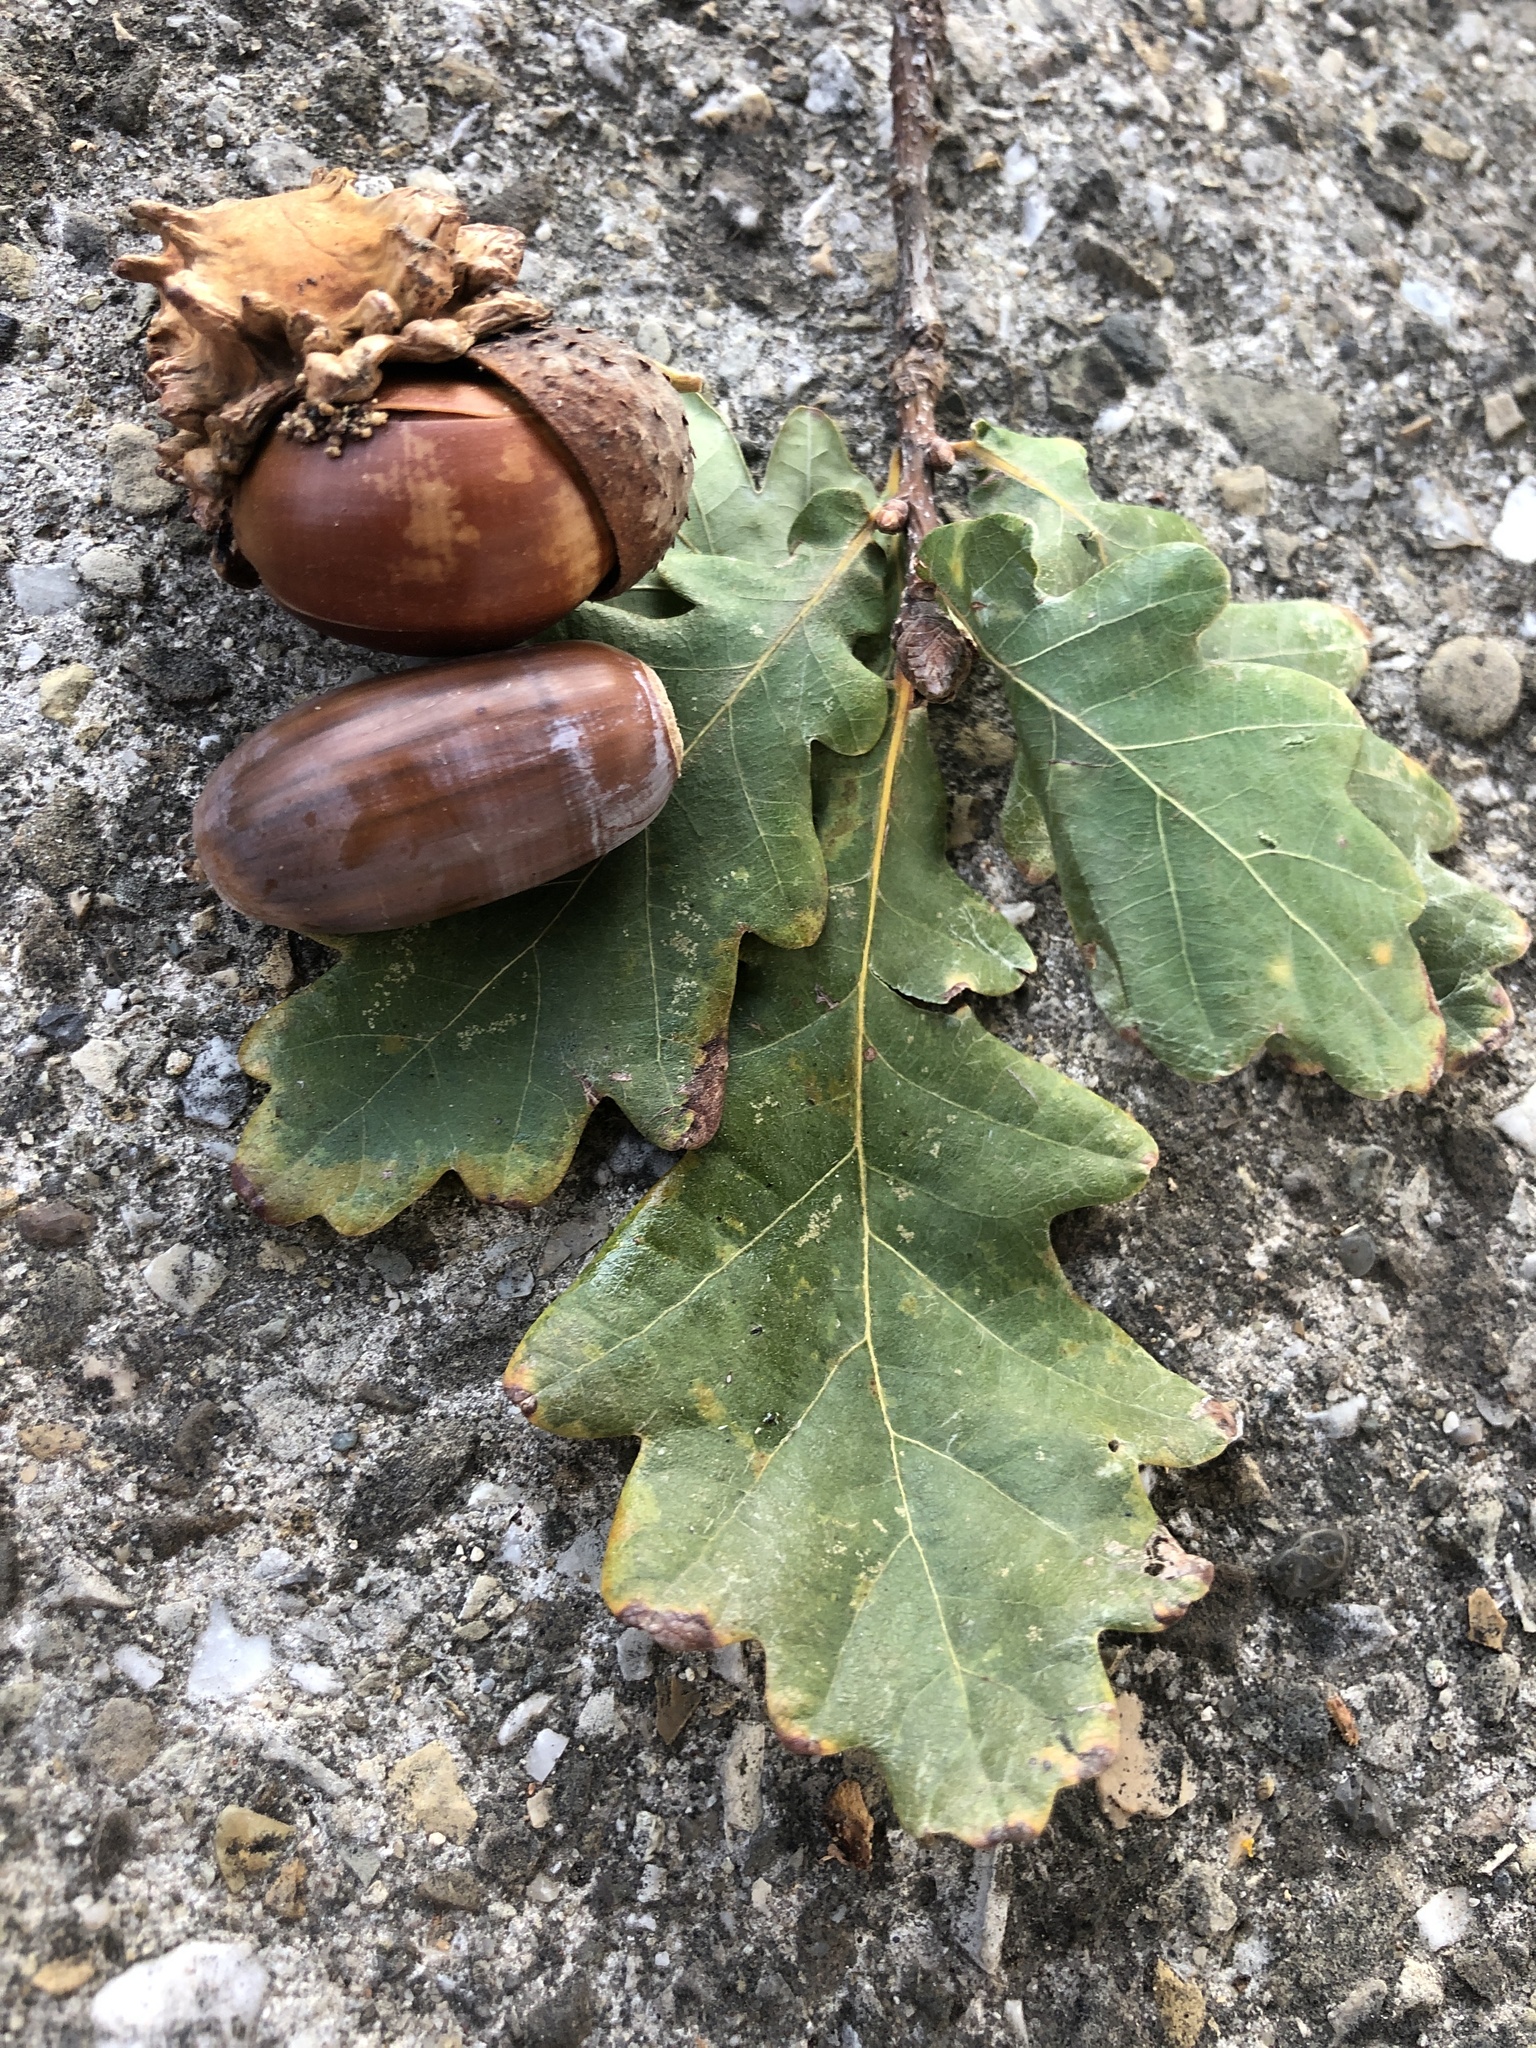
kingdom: Plantae
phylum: Tracheophyta
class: Magnoliopsida
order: Fagales
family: Fagaceae
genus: Quercus
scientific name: Quercus robur
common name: Pedunculate oak
